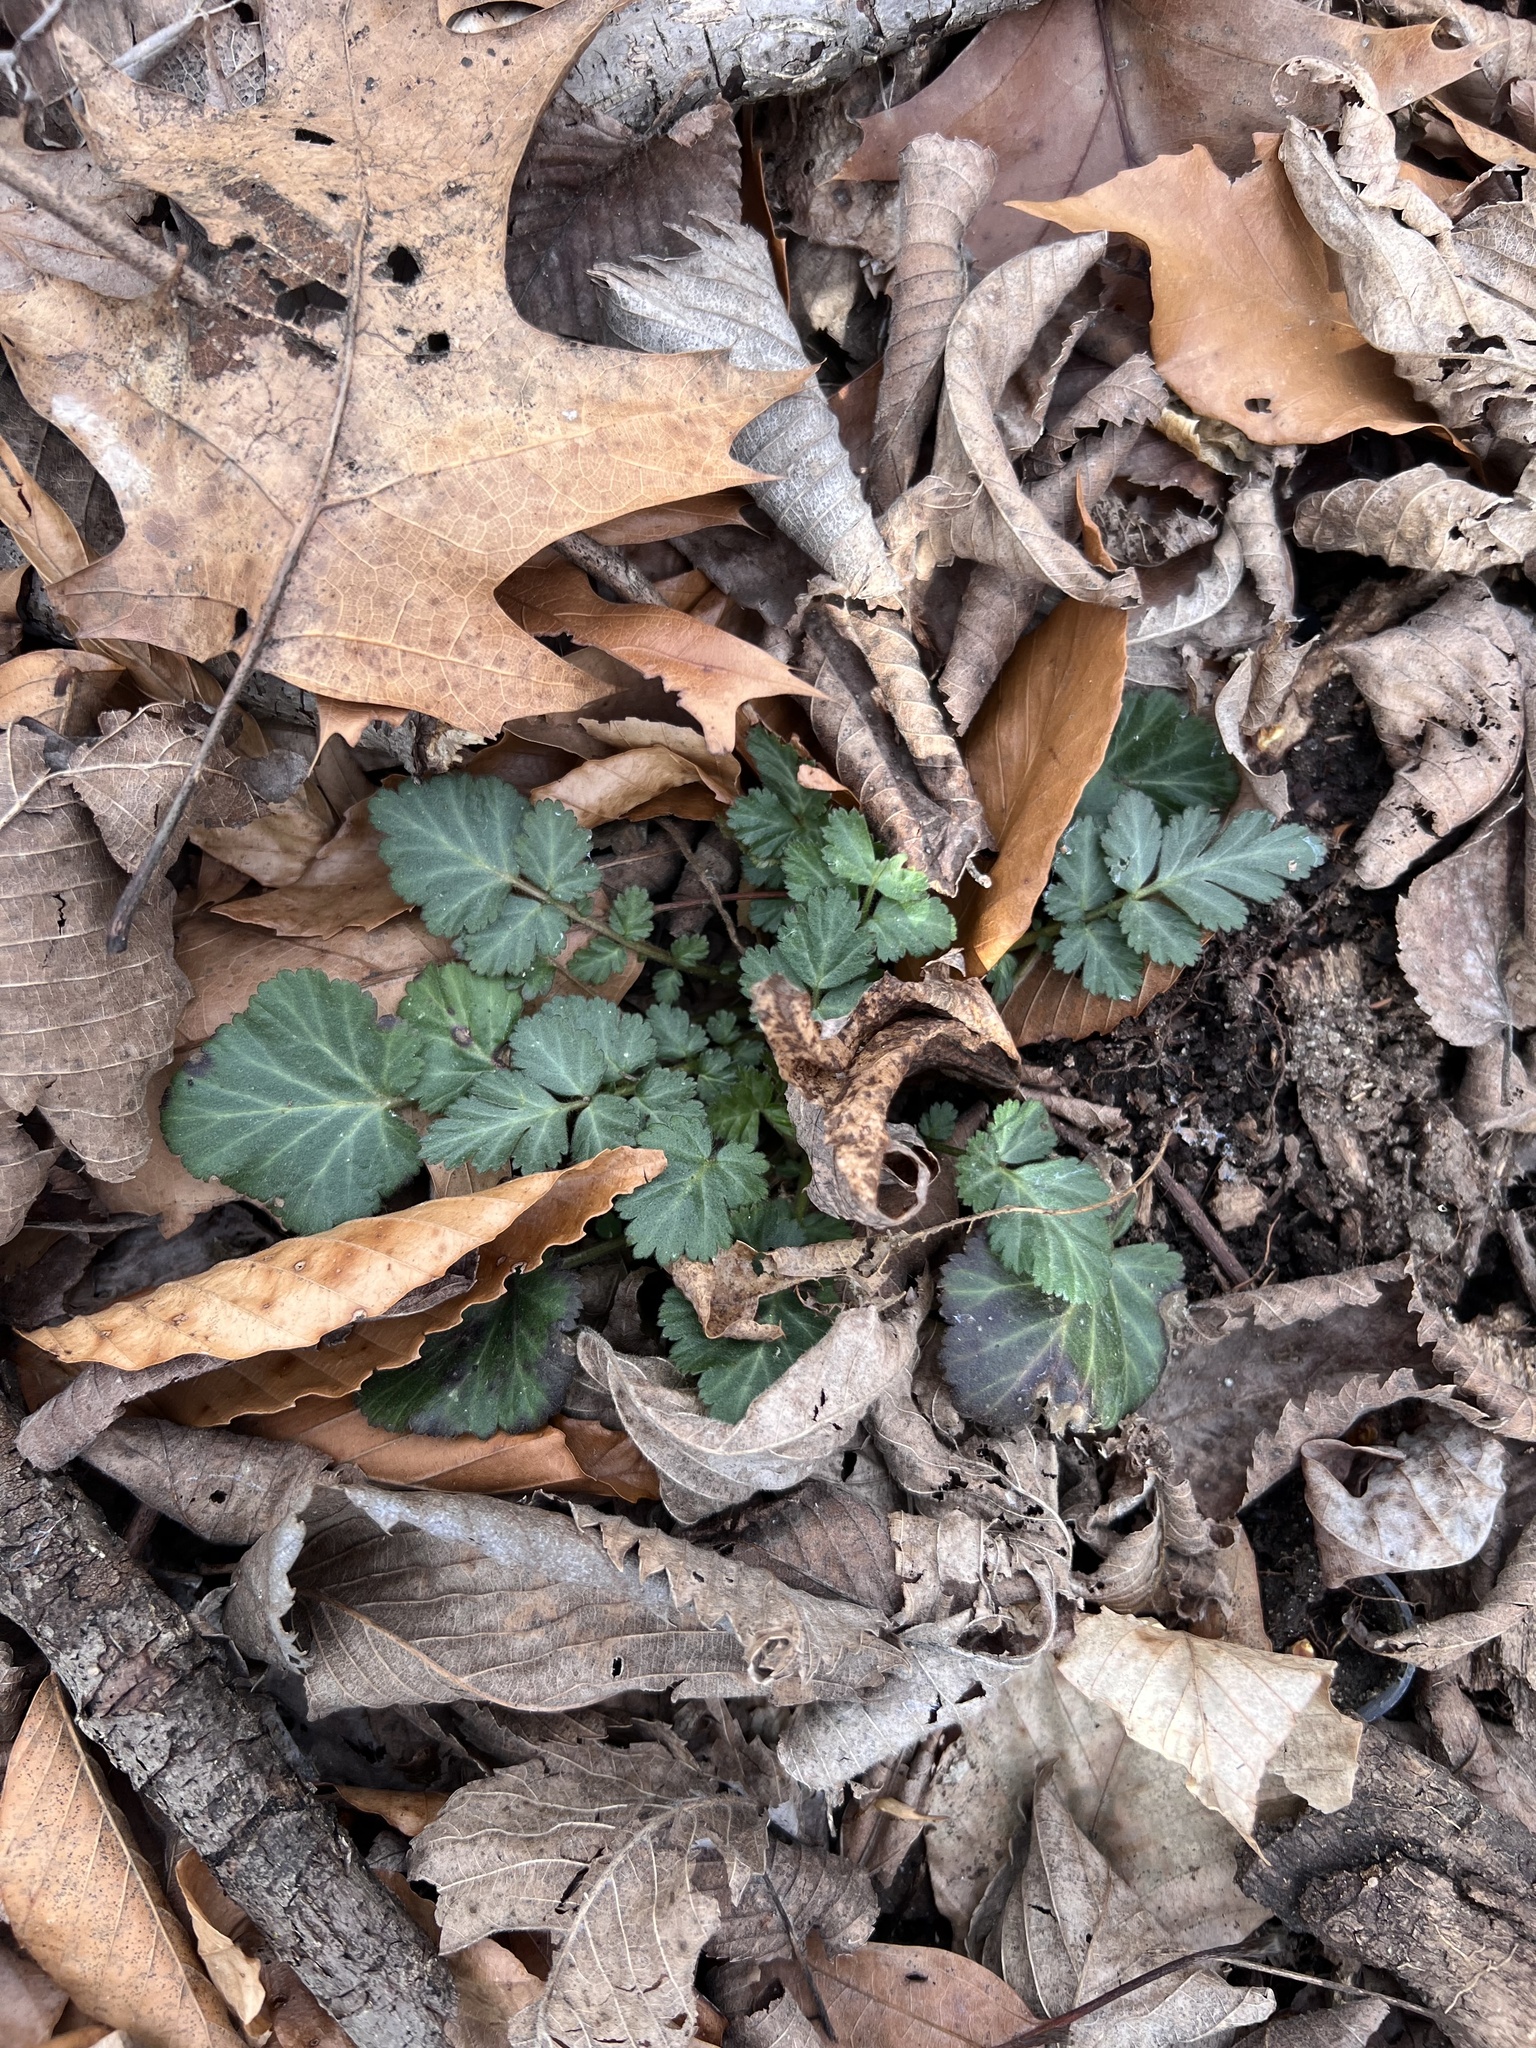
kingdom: Plantae
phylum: Tracheophyta
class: Magnoliopsida
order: Rosales
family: Rosaceae
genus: Geum
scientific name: Geum canadense
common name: White avens
